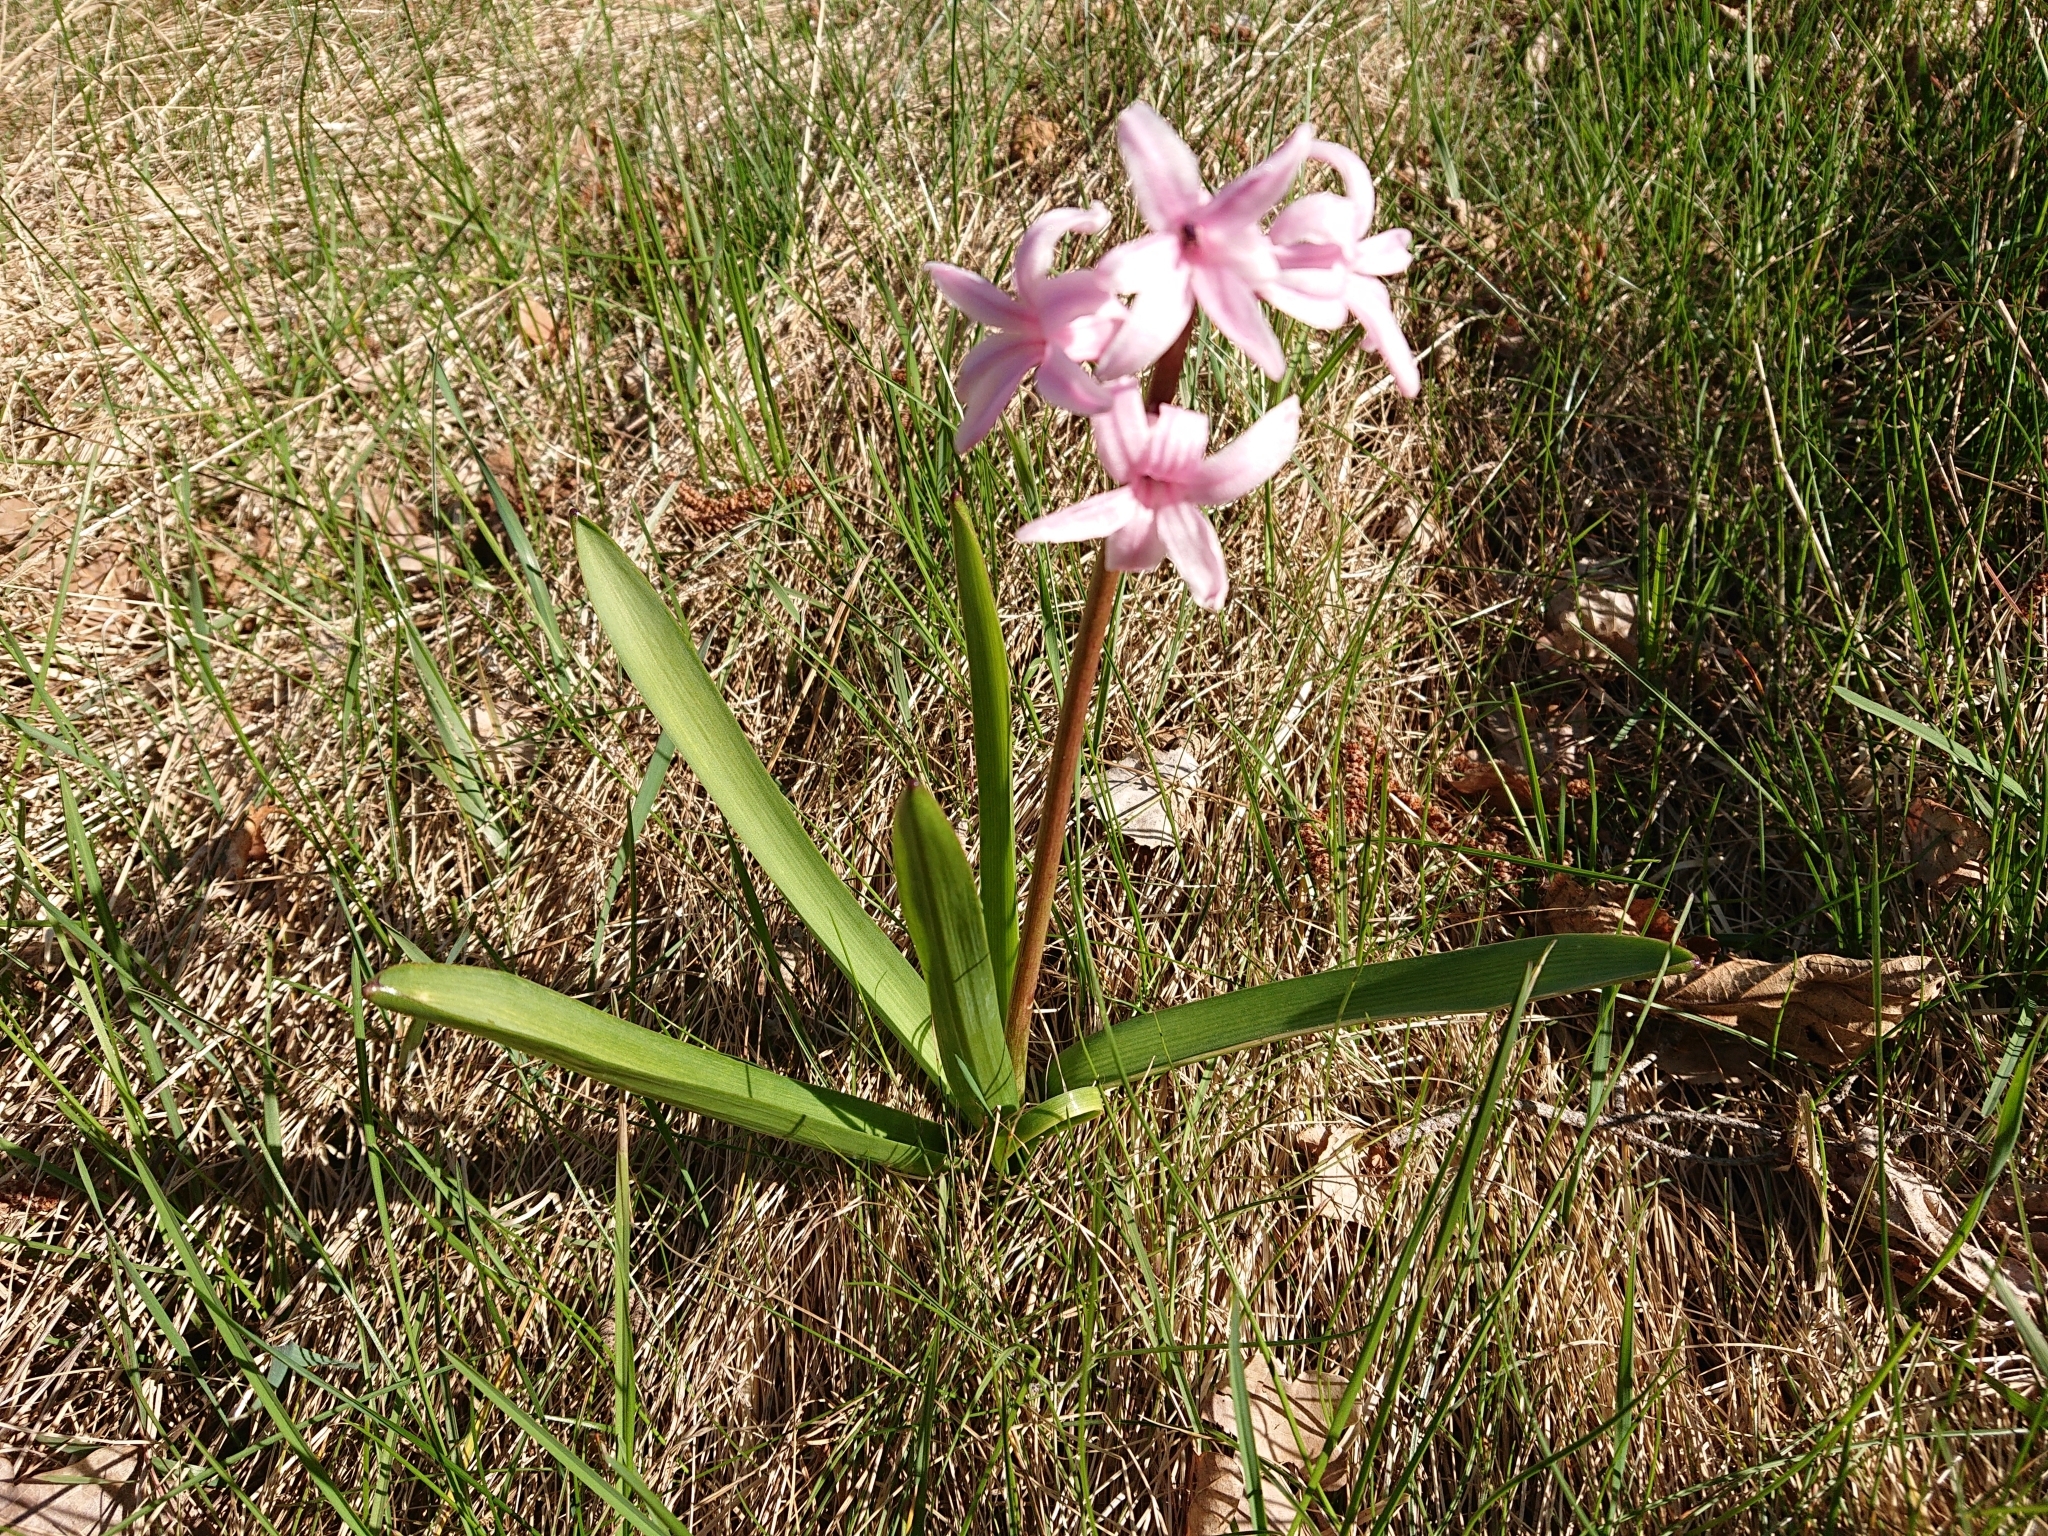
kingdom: Plantae
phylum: Tracheophyta
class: Liliopsida
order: Asparagales
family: Asparagaceae
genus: Hyacinthus
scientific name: Hyacinthus orientalis
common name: Hyacinth
